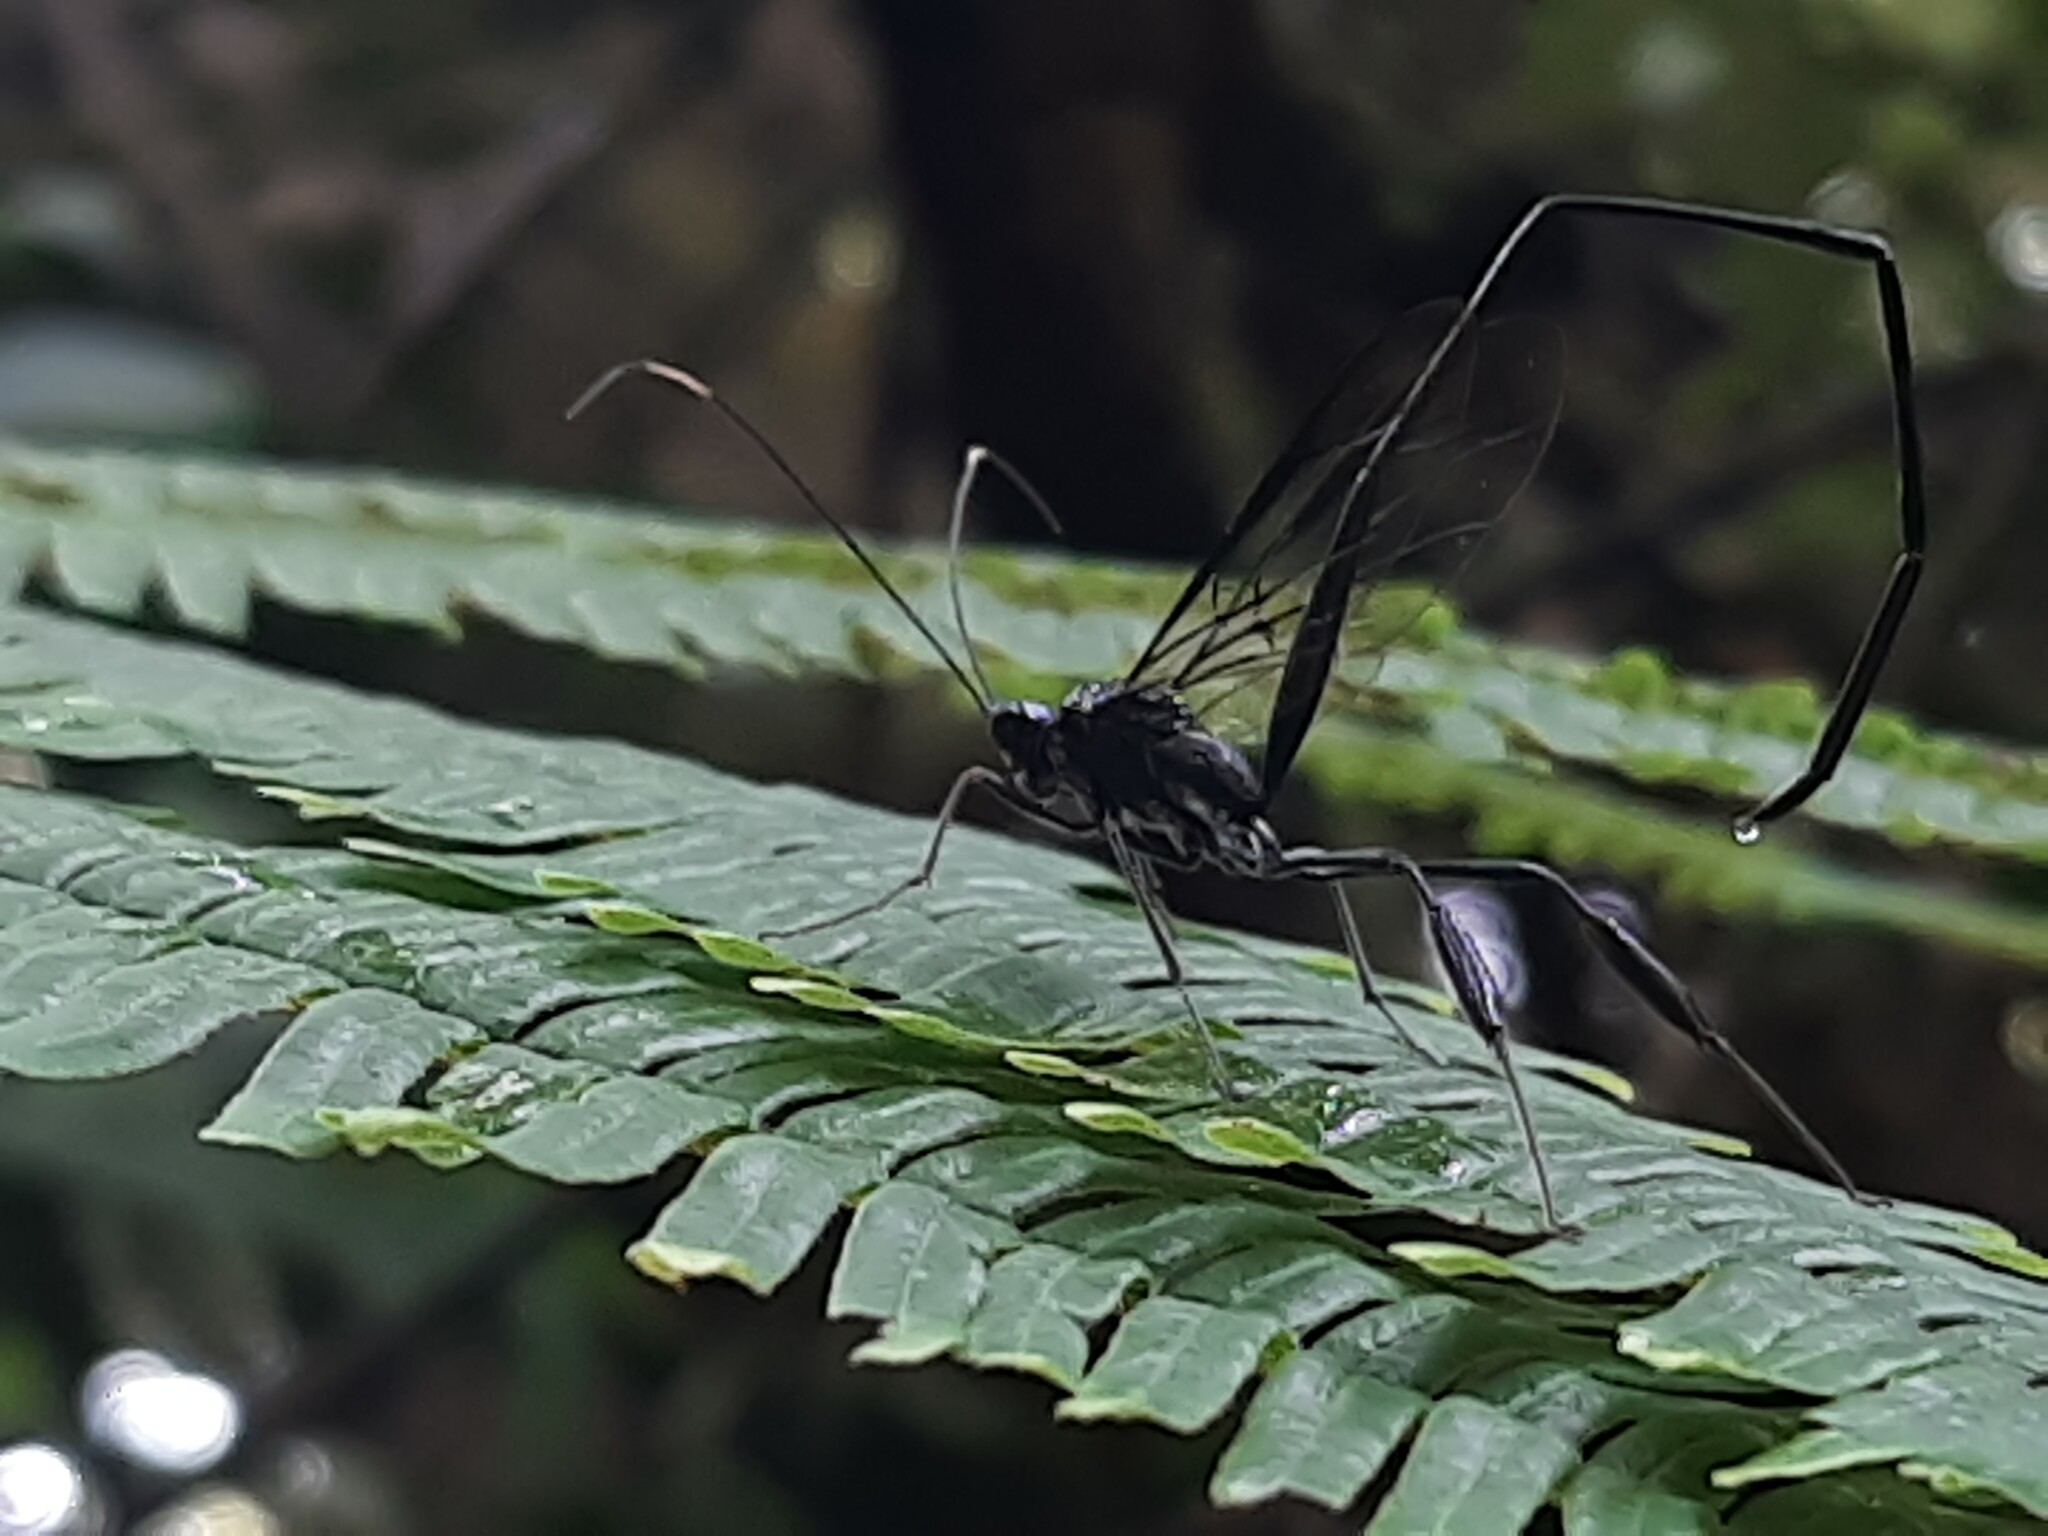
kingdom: Animalia
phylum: Arthropoda
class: Insecta
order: Hymenoptera
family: Pelecinidae
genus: Pelecinus
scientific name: Pelecinus polyturator
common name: American pelecinid wasp
